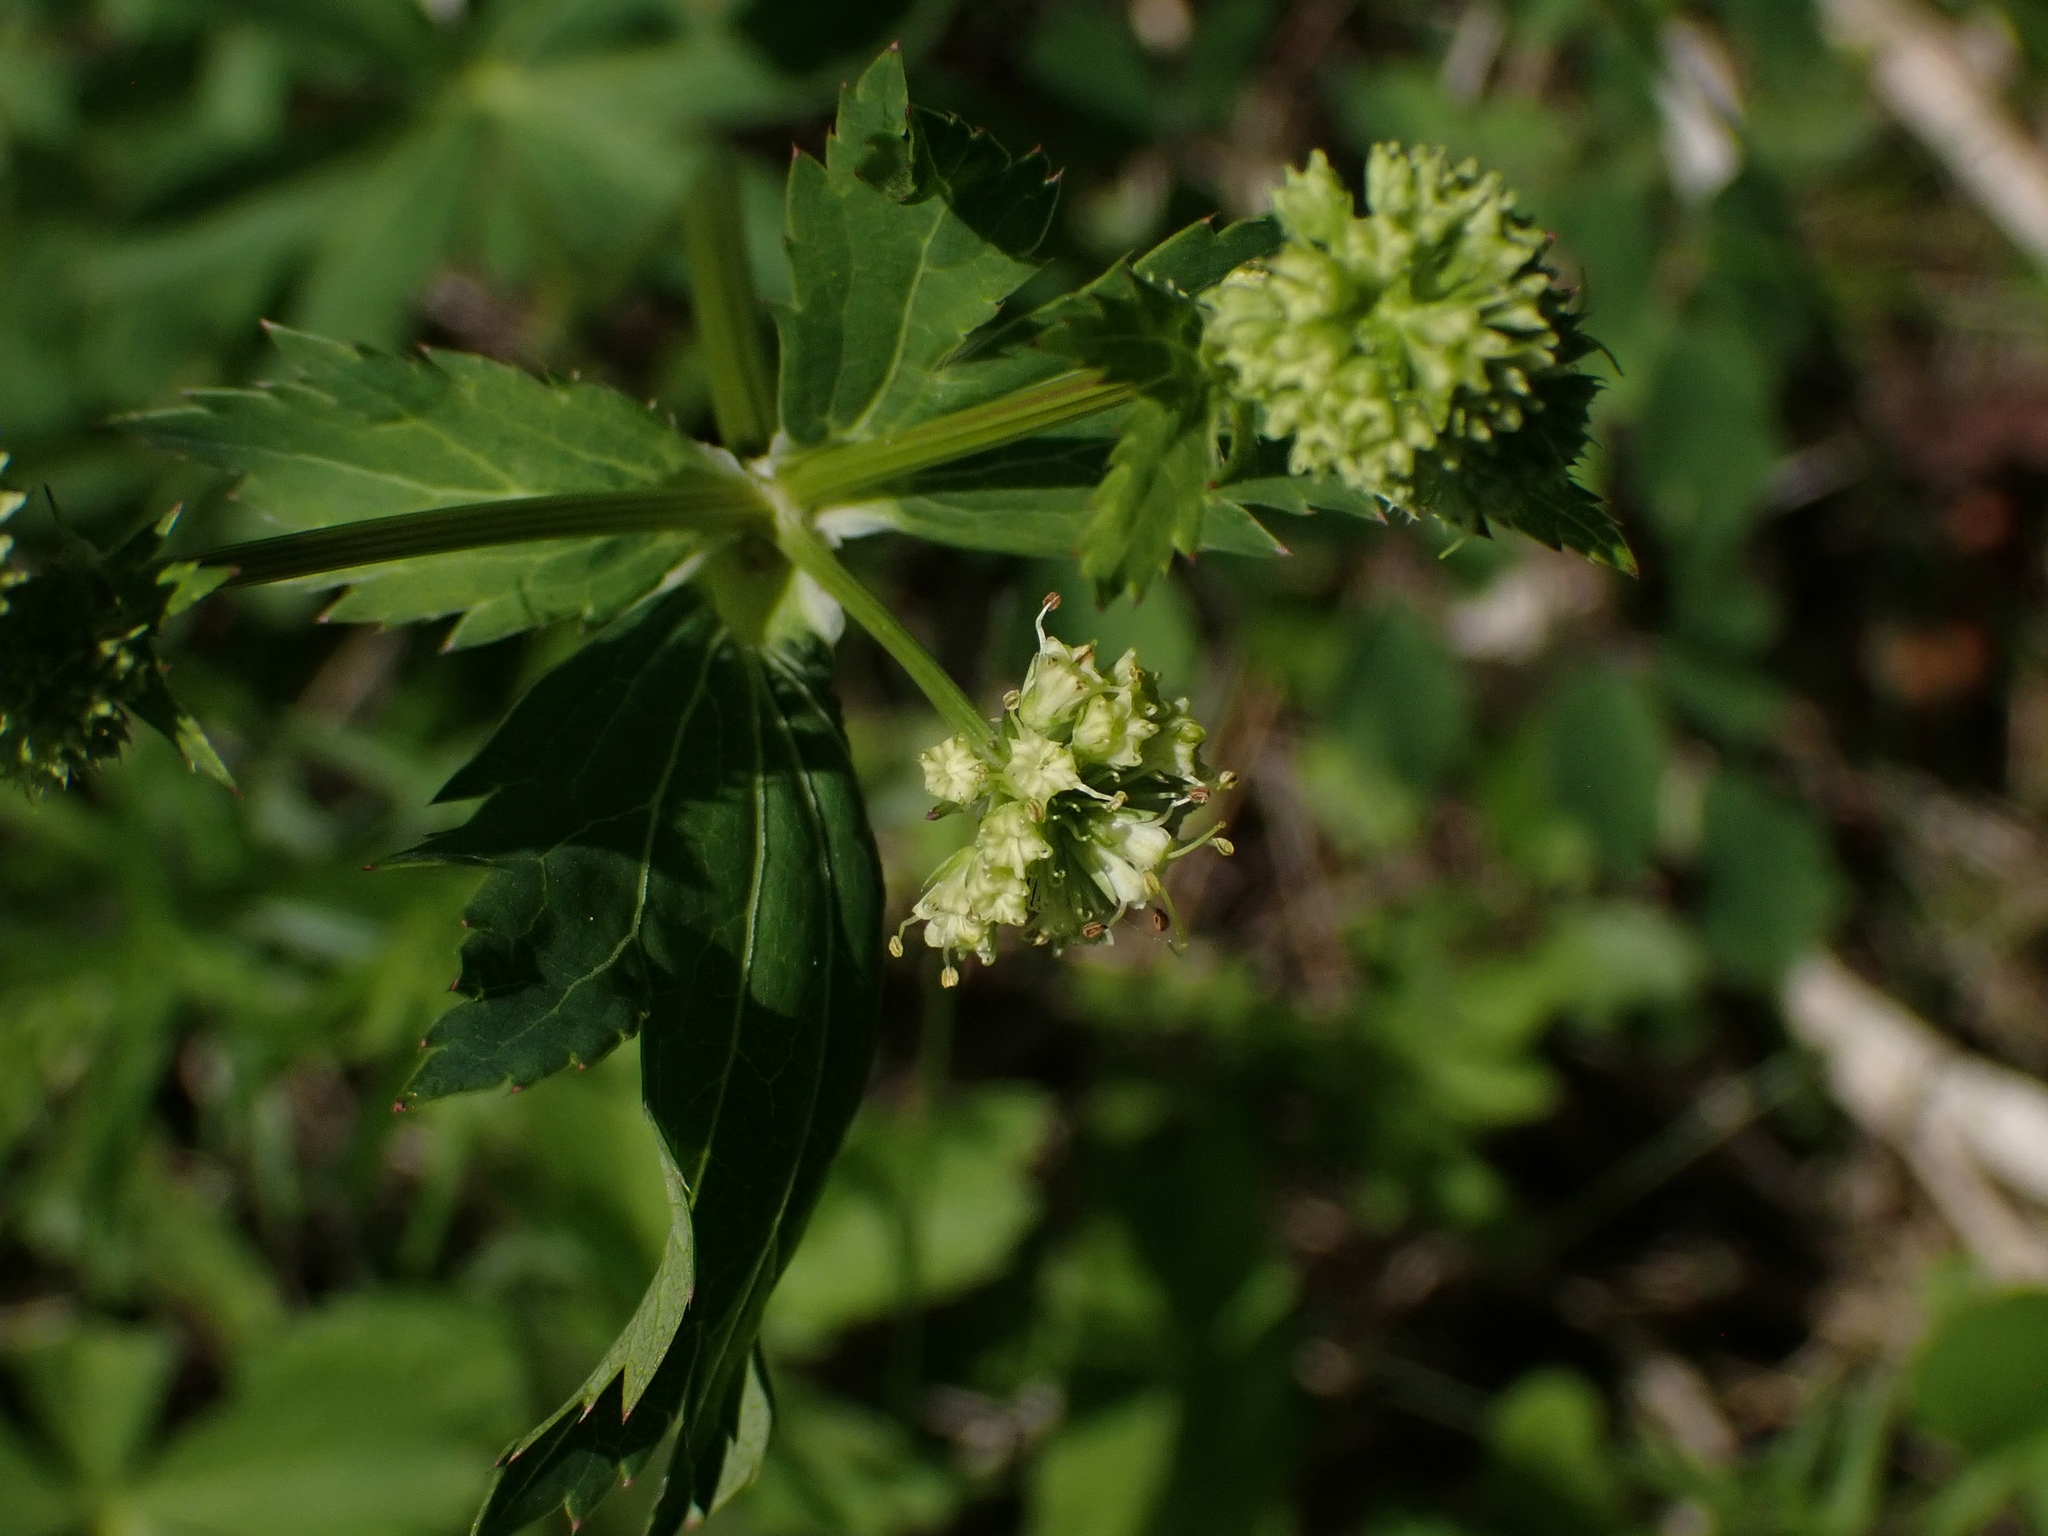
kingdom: Plantae
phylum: Tracheophyta
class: Magnoliopsida
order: Apiales
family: Apiaceae
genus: Sanicula
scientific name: Sanicula marilandica
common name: Black snakeroot
